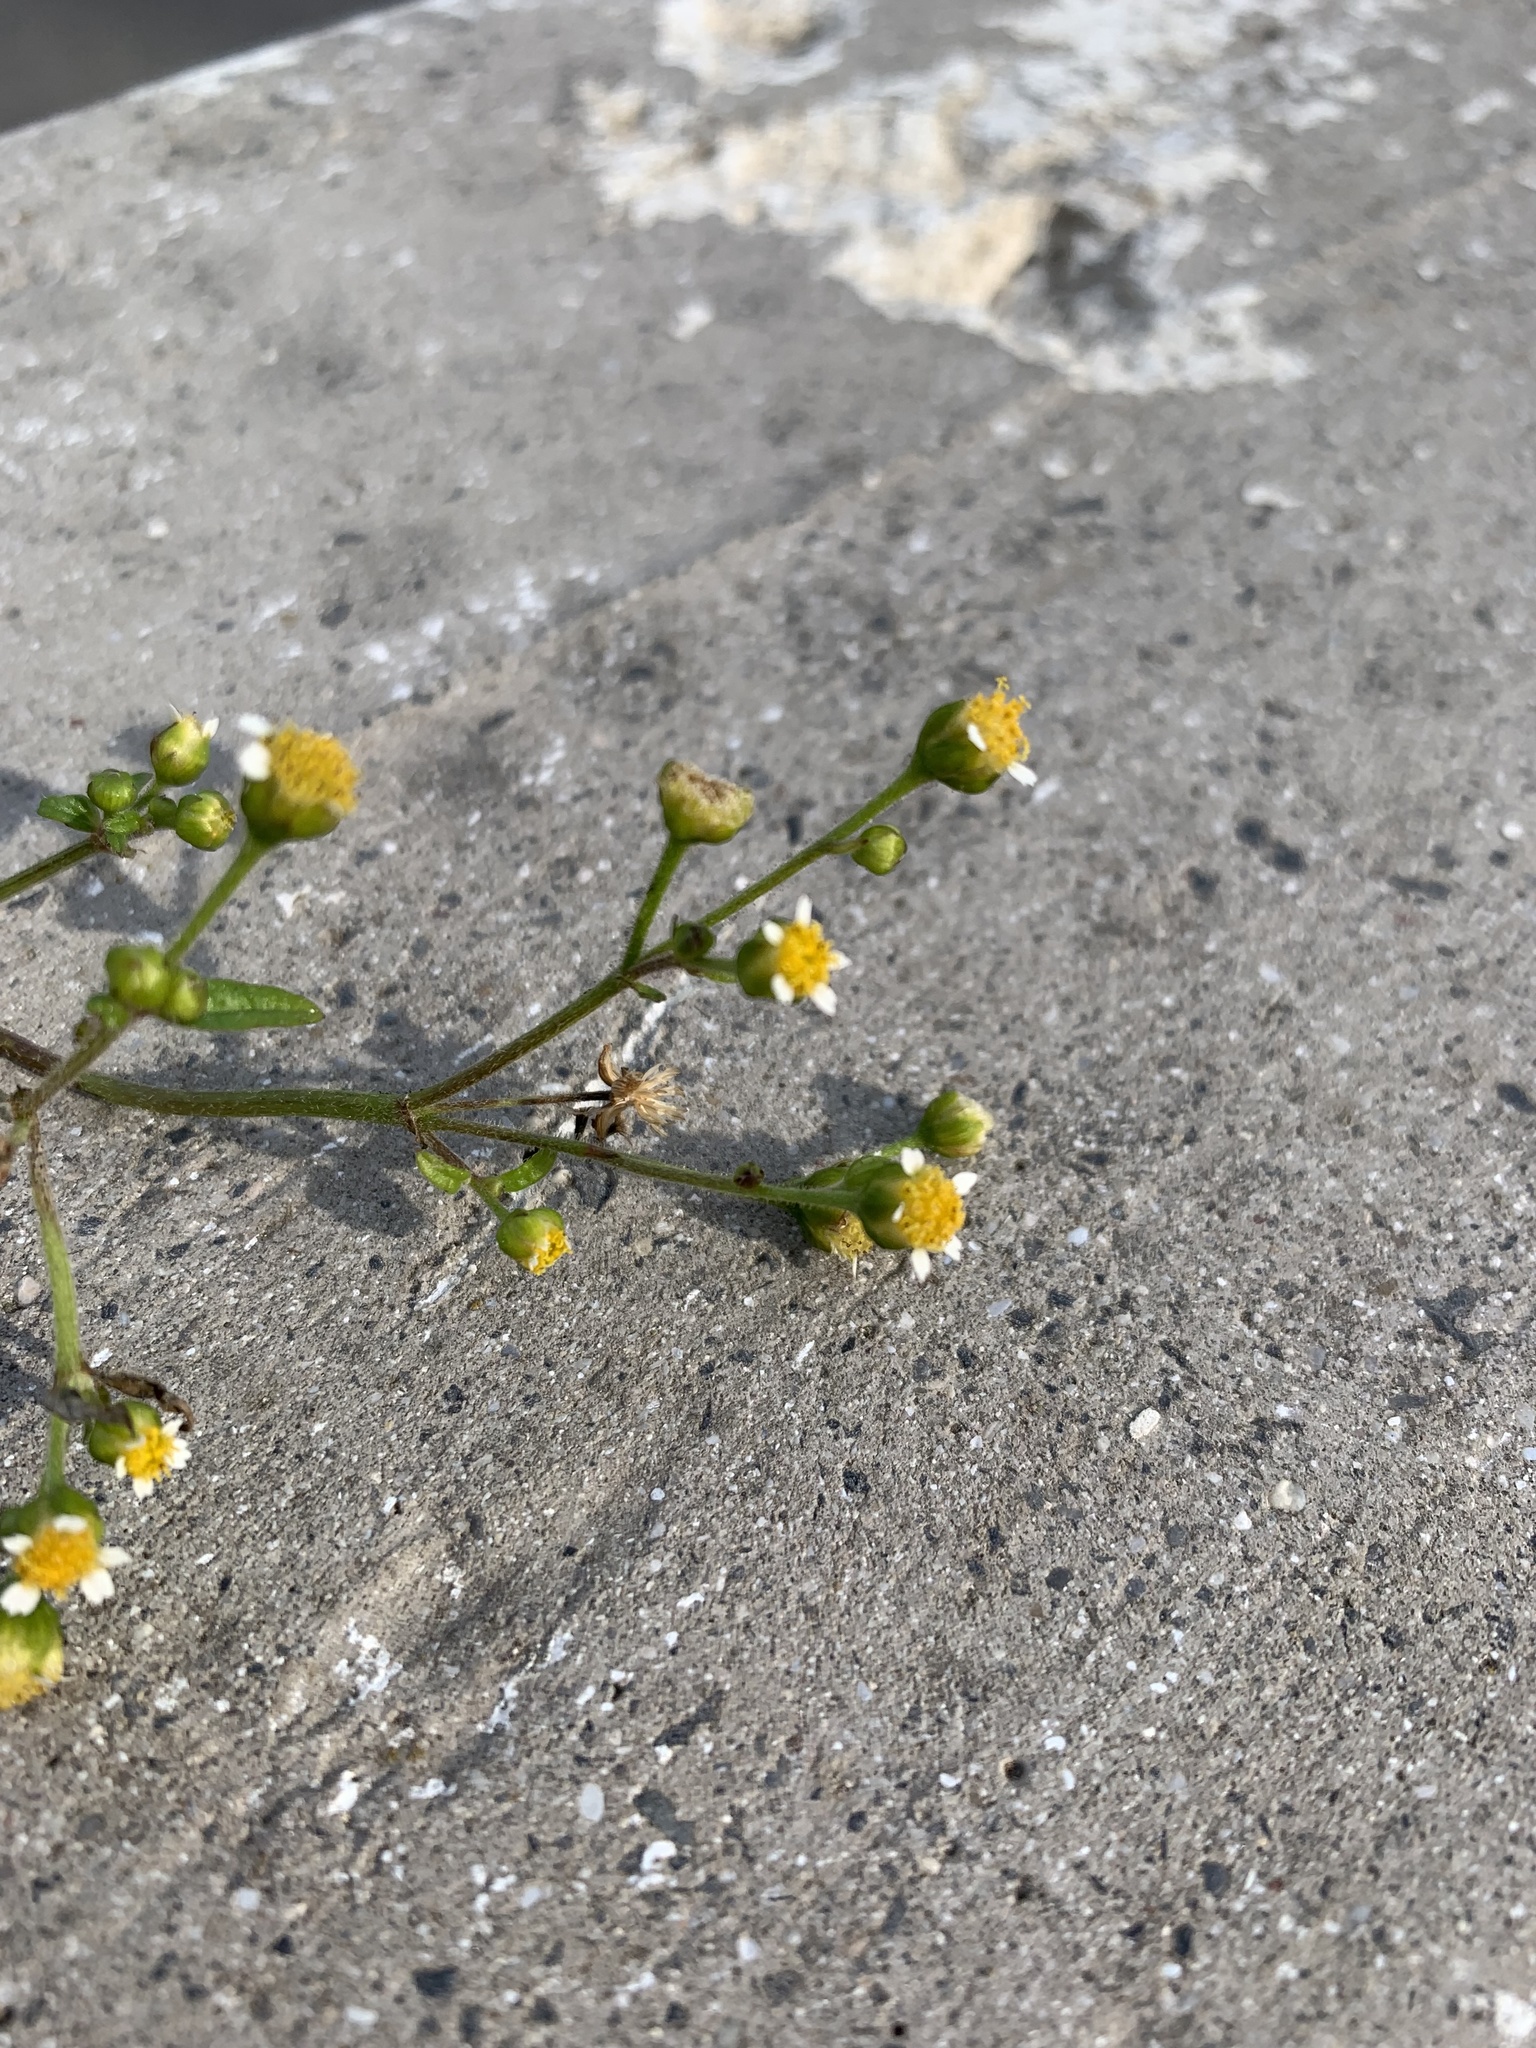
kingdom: Plantae
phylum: Tracheophyta
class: Magnoliopsida
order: Asterales
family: Asteraceae
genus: Galinsoga
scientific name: Galinsoga parviflora
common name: Gallant soldier
